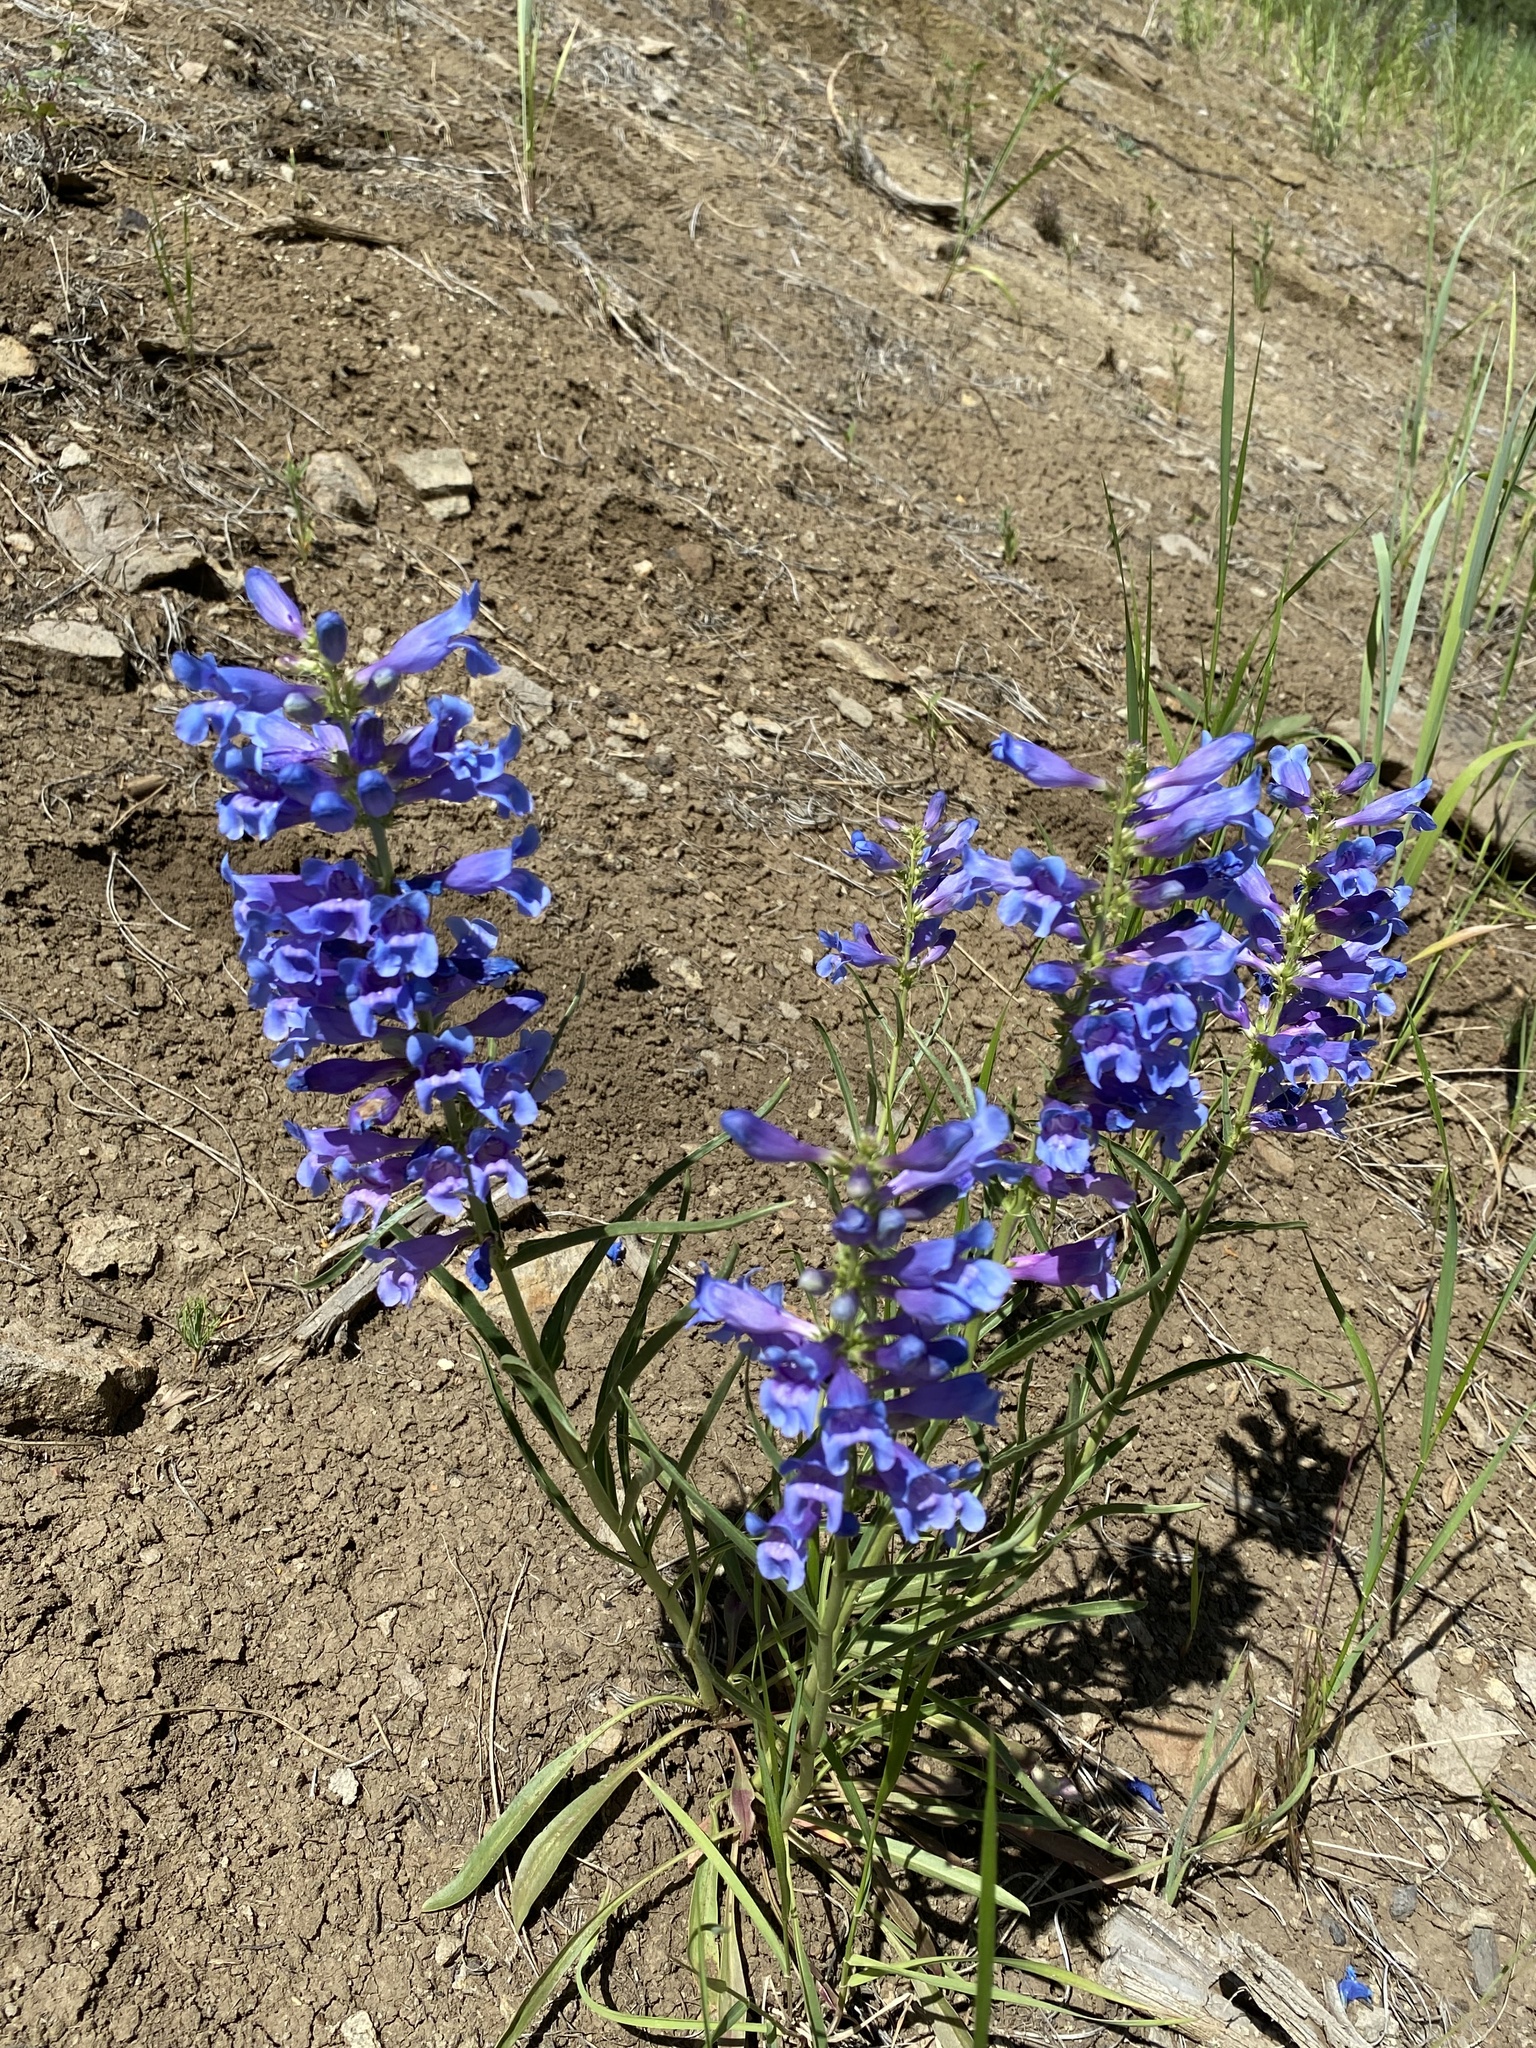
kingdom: Plantae
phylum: Tracheophyta
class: Magnoliopsida
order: Lamiales
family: Plantaginaceae
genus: Penstemon
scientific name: Penstemon speciosus
